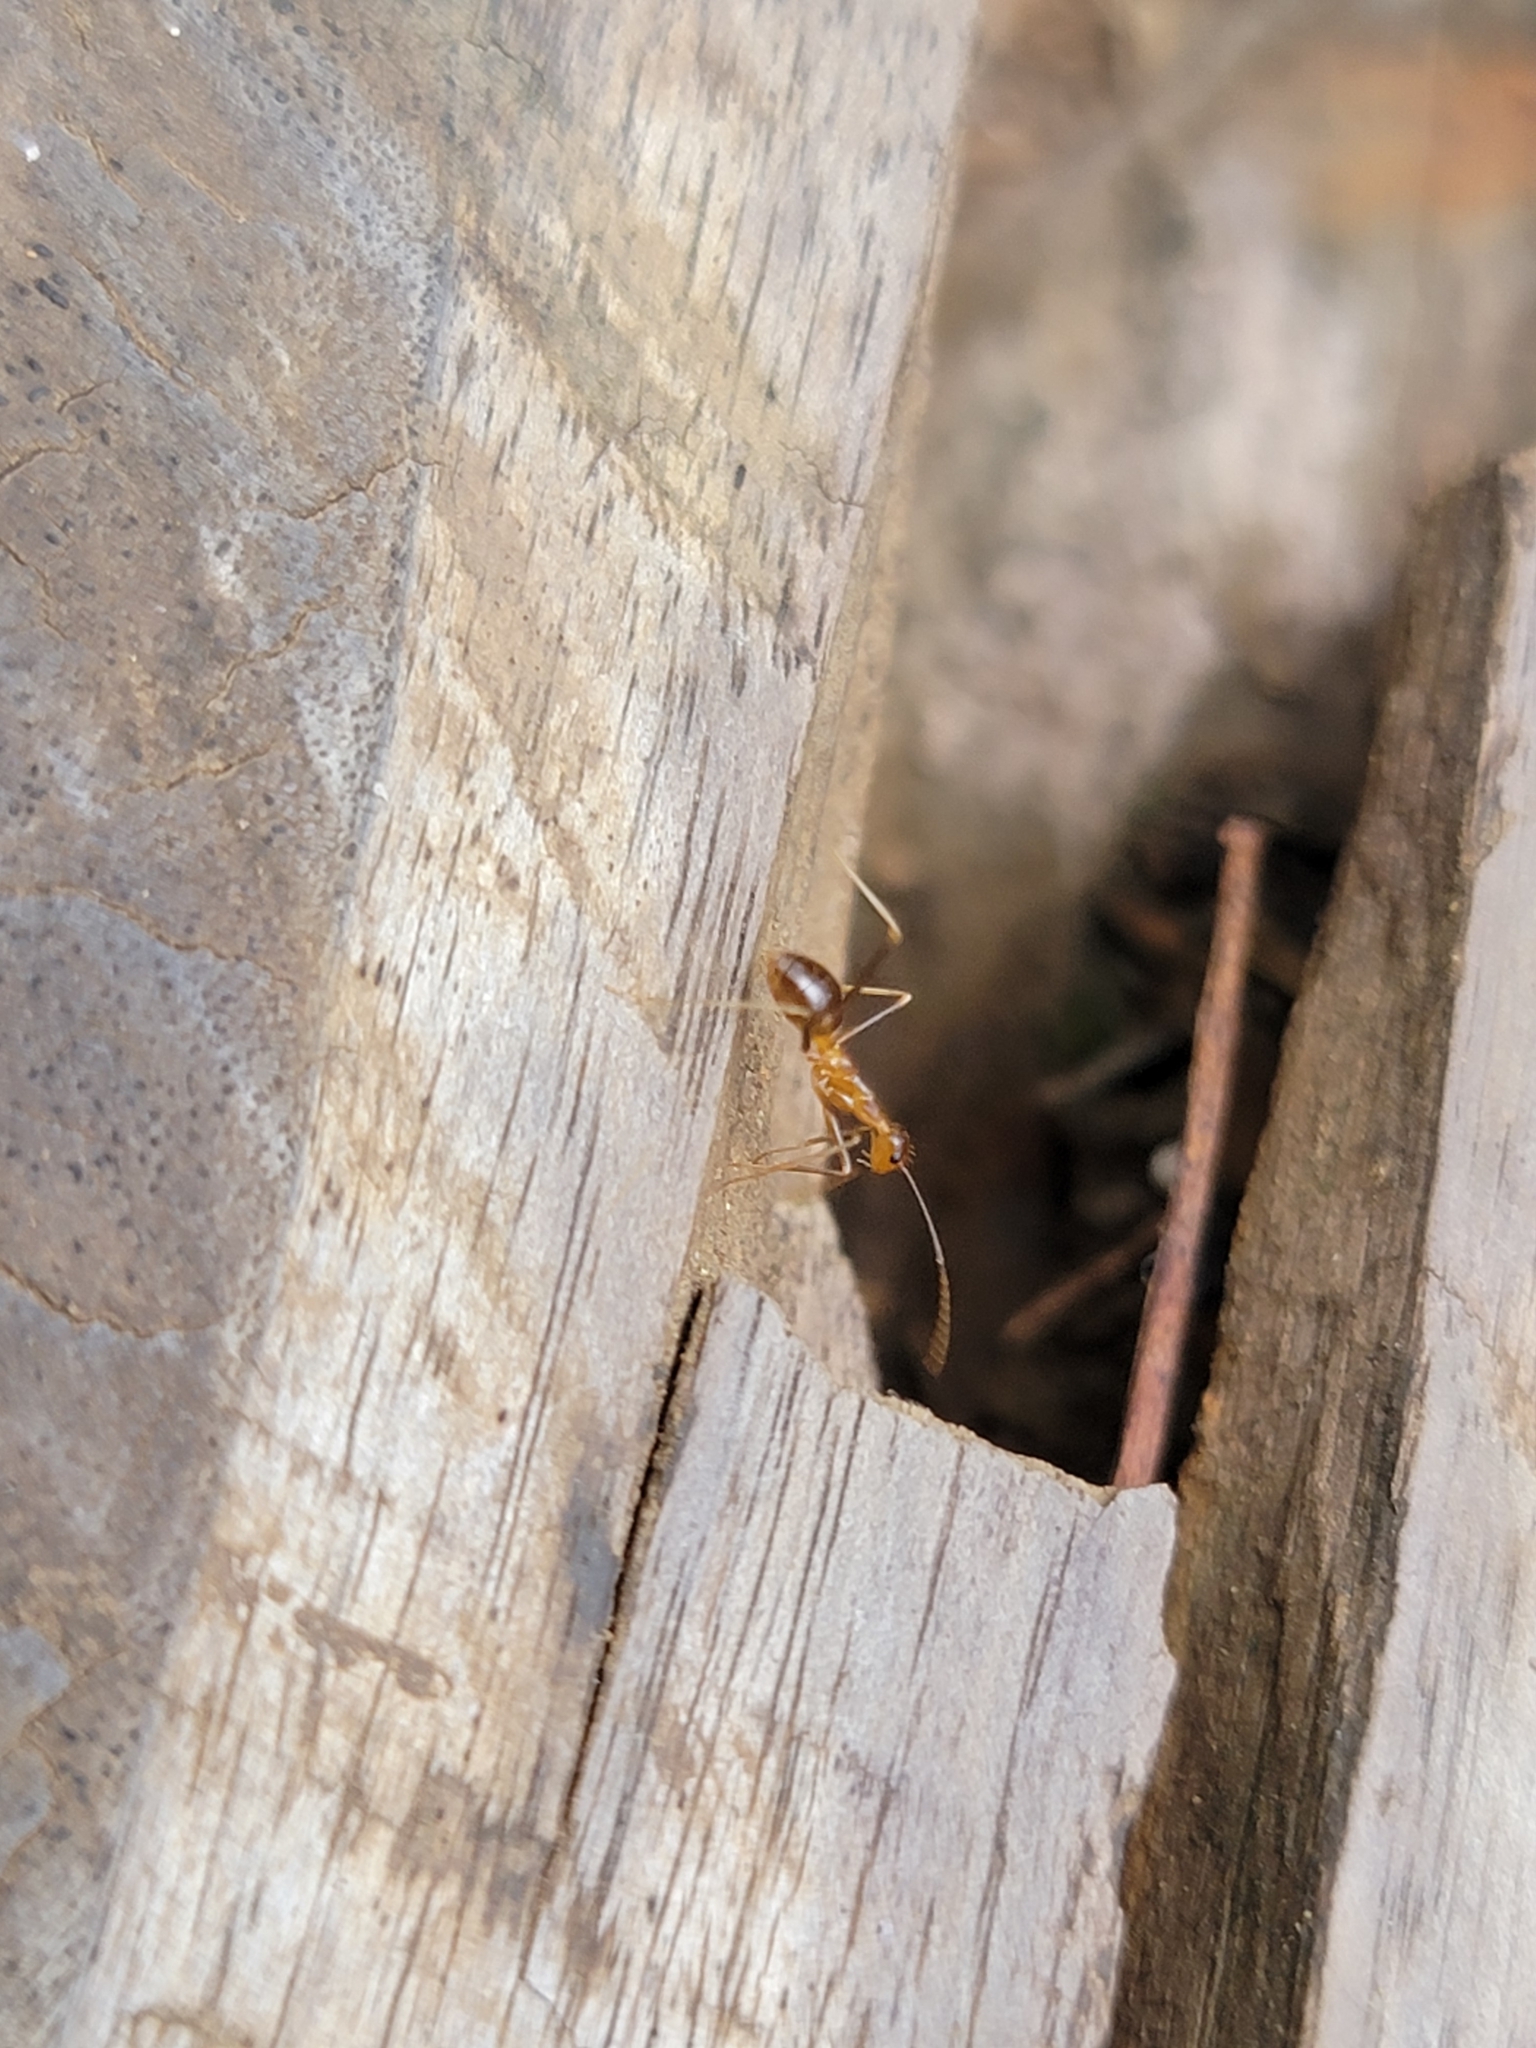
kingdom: Animalia
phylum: Arthropoda
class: Insecta
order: Hymenoptera
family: Formicidae
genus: Anoplolepis
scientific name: Anoplolepis gracilipes
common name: Ant
